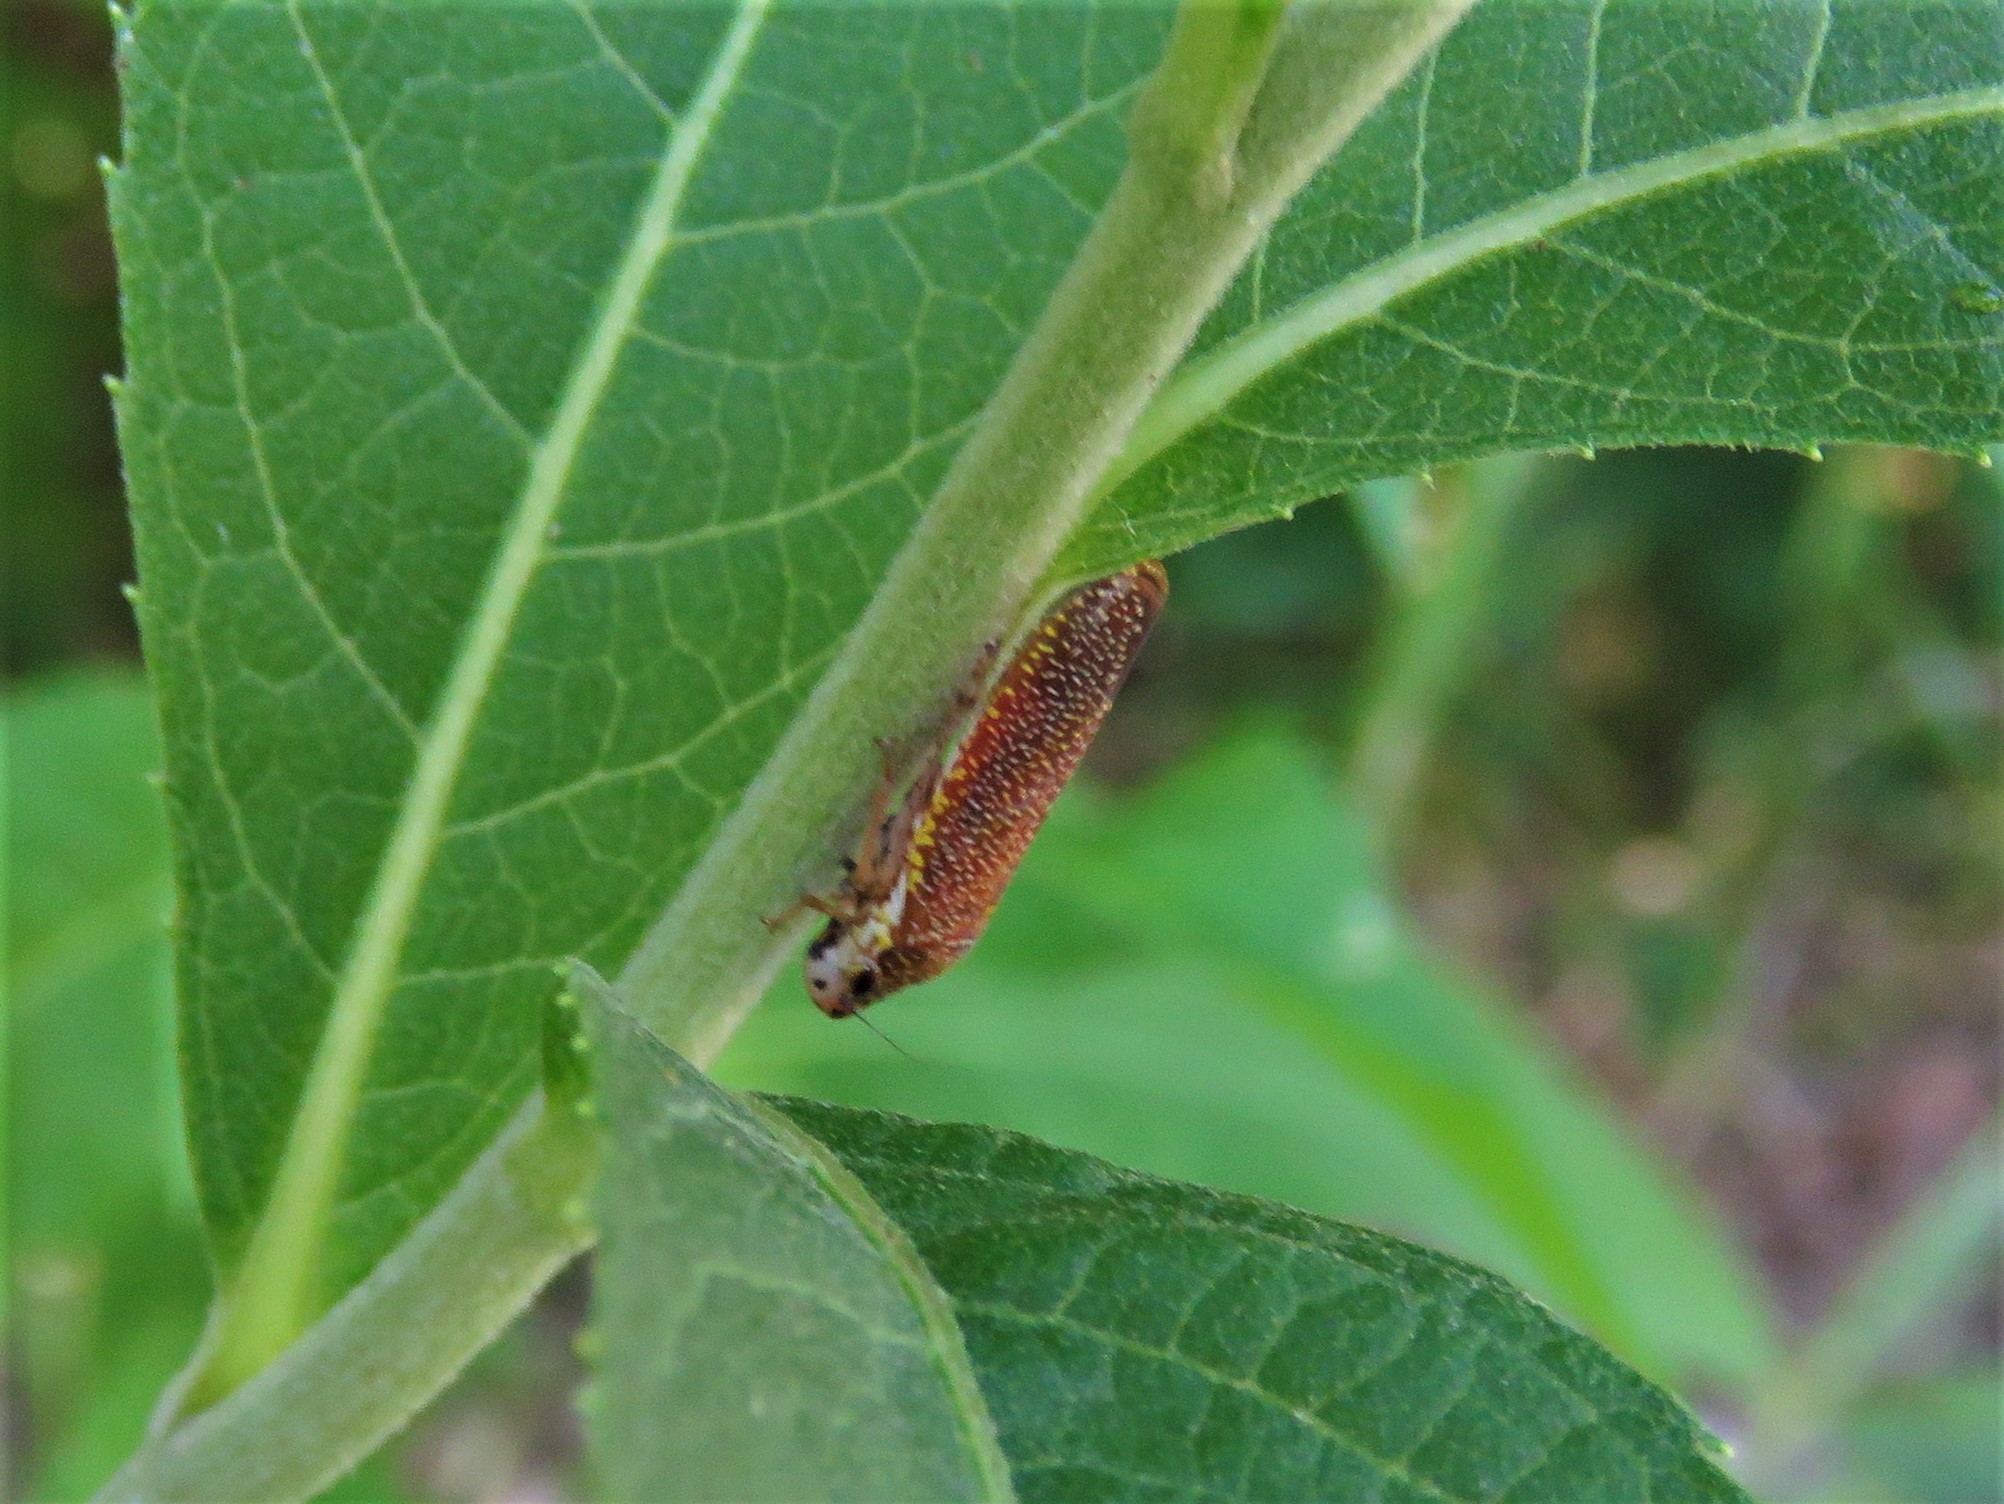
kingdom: Animalia
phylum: Arthropoda
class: Insecta
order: Hemiptera
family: Cicadellidae
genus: Paraulacizes
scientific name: Paraulacizes irrorata
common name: Speckled sharpshooter
